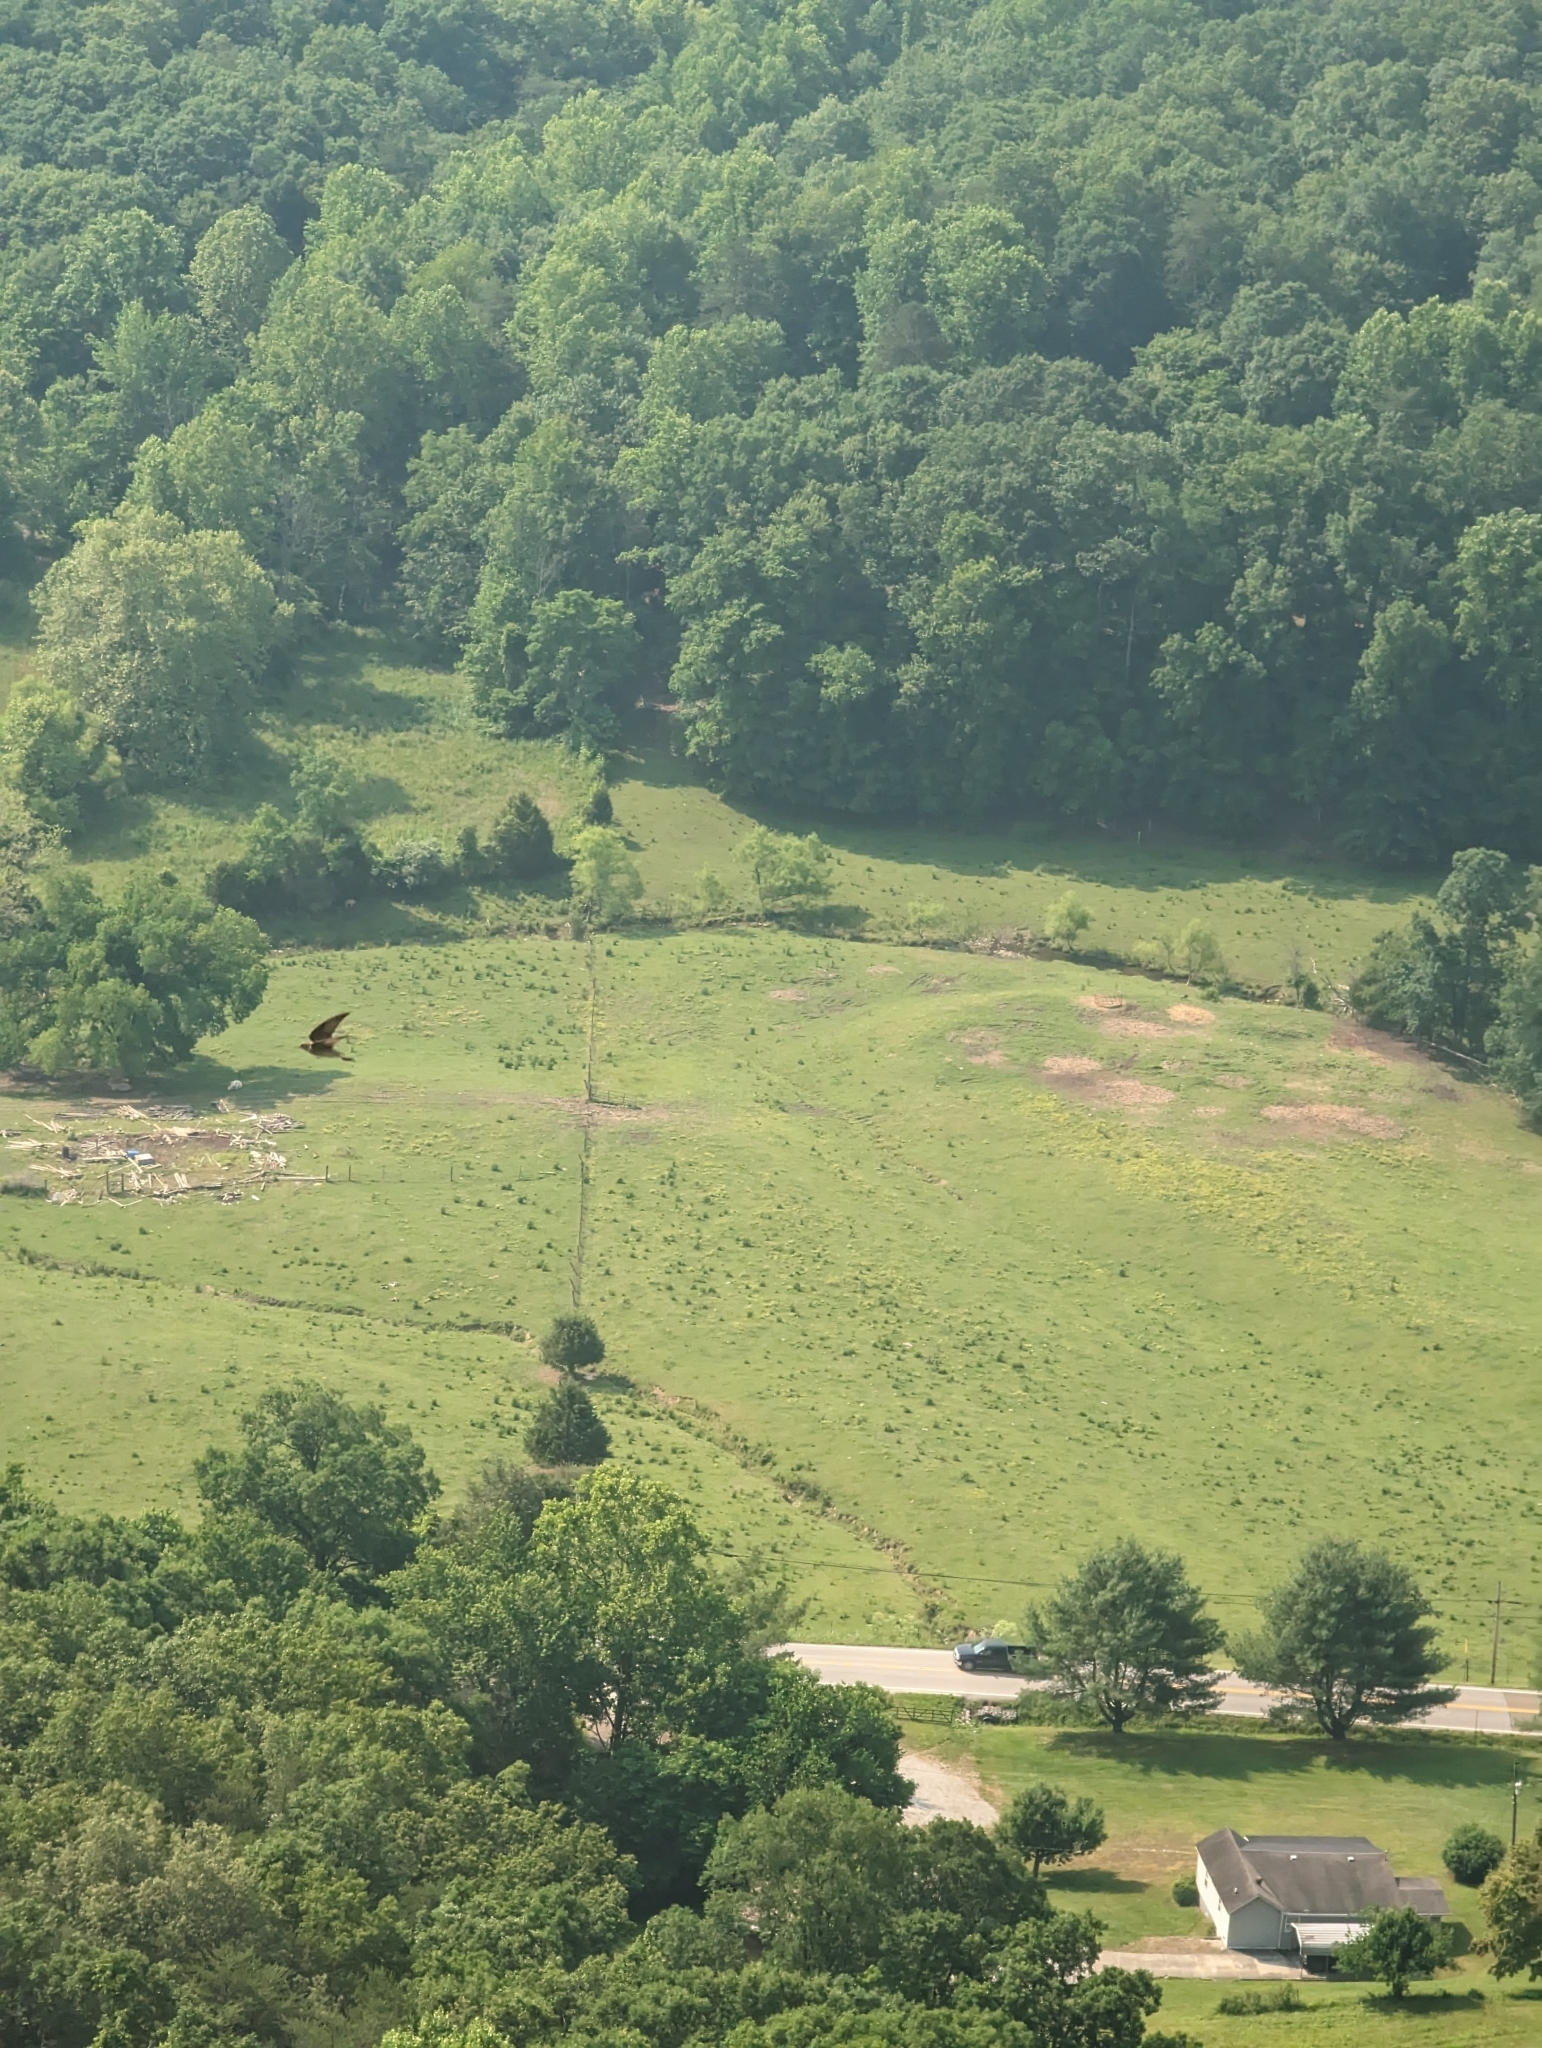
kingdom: Animalia
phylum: Chordata
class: Aves
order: Passeriformes
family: Hirundinidae
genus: Petrochelidon
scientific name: Petrochelidon pyrrhonota
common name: American cliff swallow
